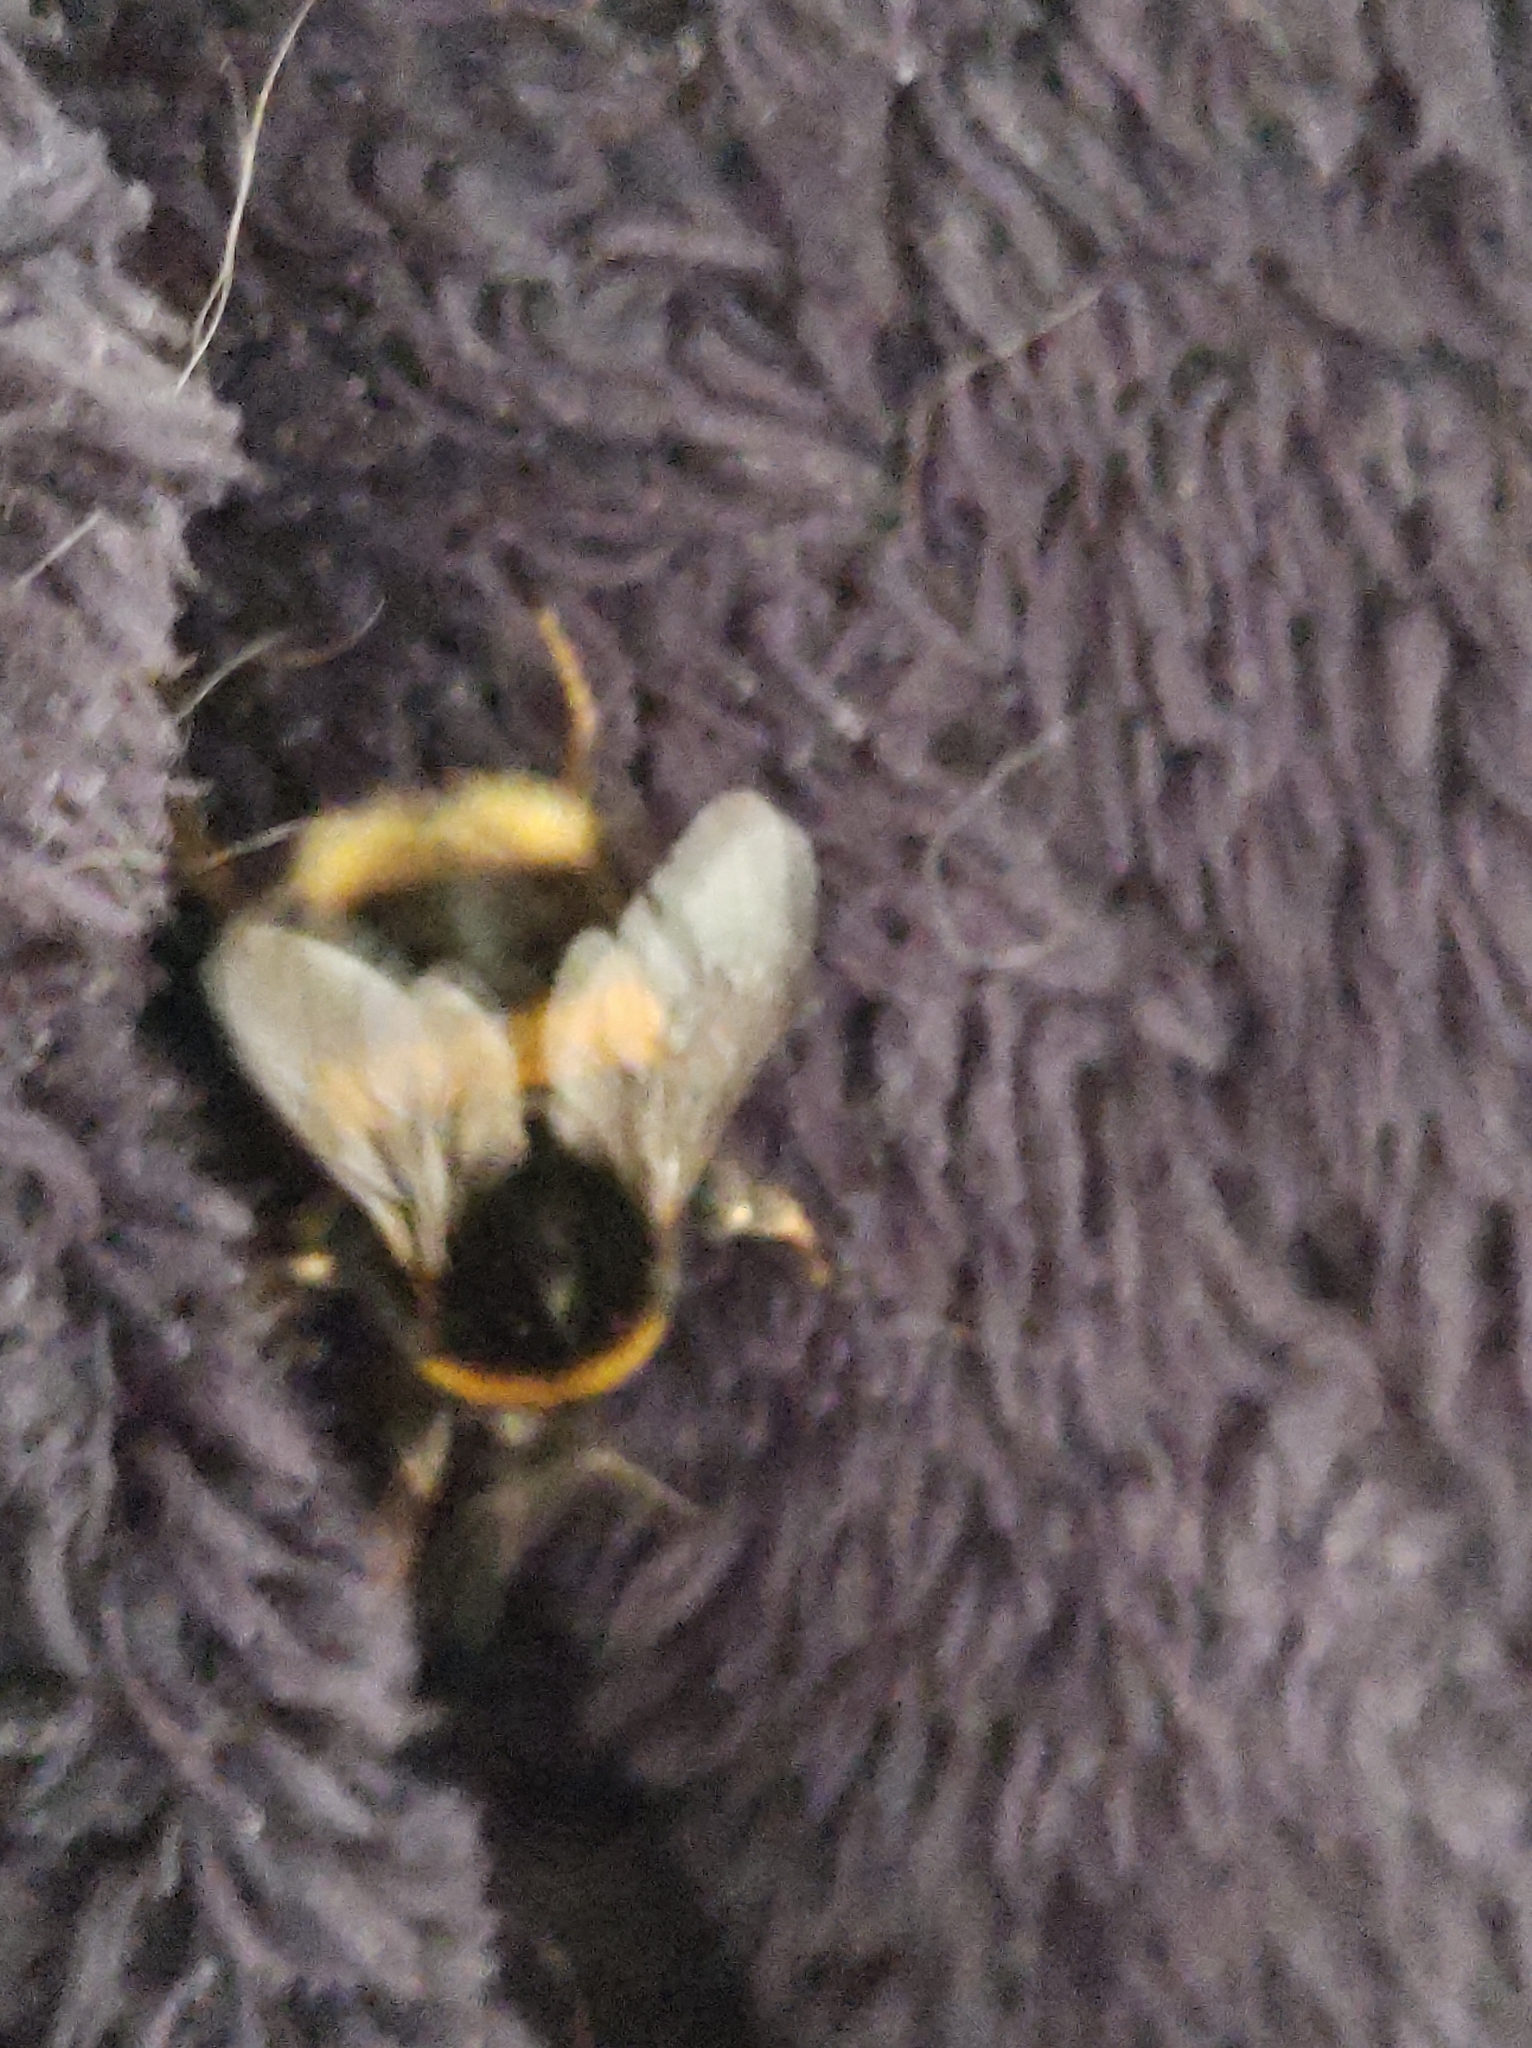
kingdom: Animalia
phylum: Arthropoda
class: Insecta
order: Hymenoptera
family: Apidae
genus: Bombus
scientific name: Bombus terrestris
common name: Buff-tailed bumblebee
